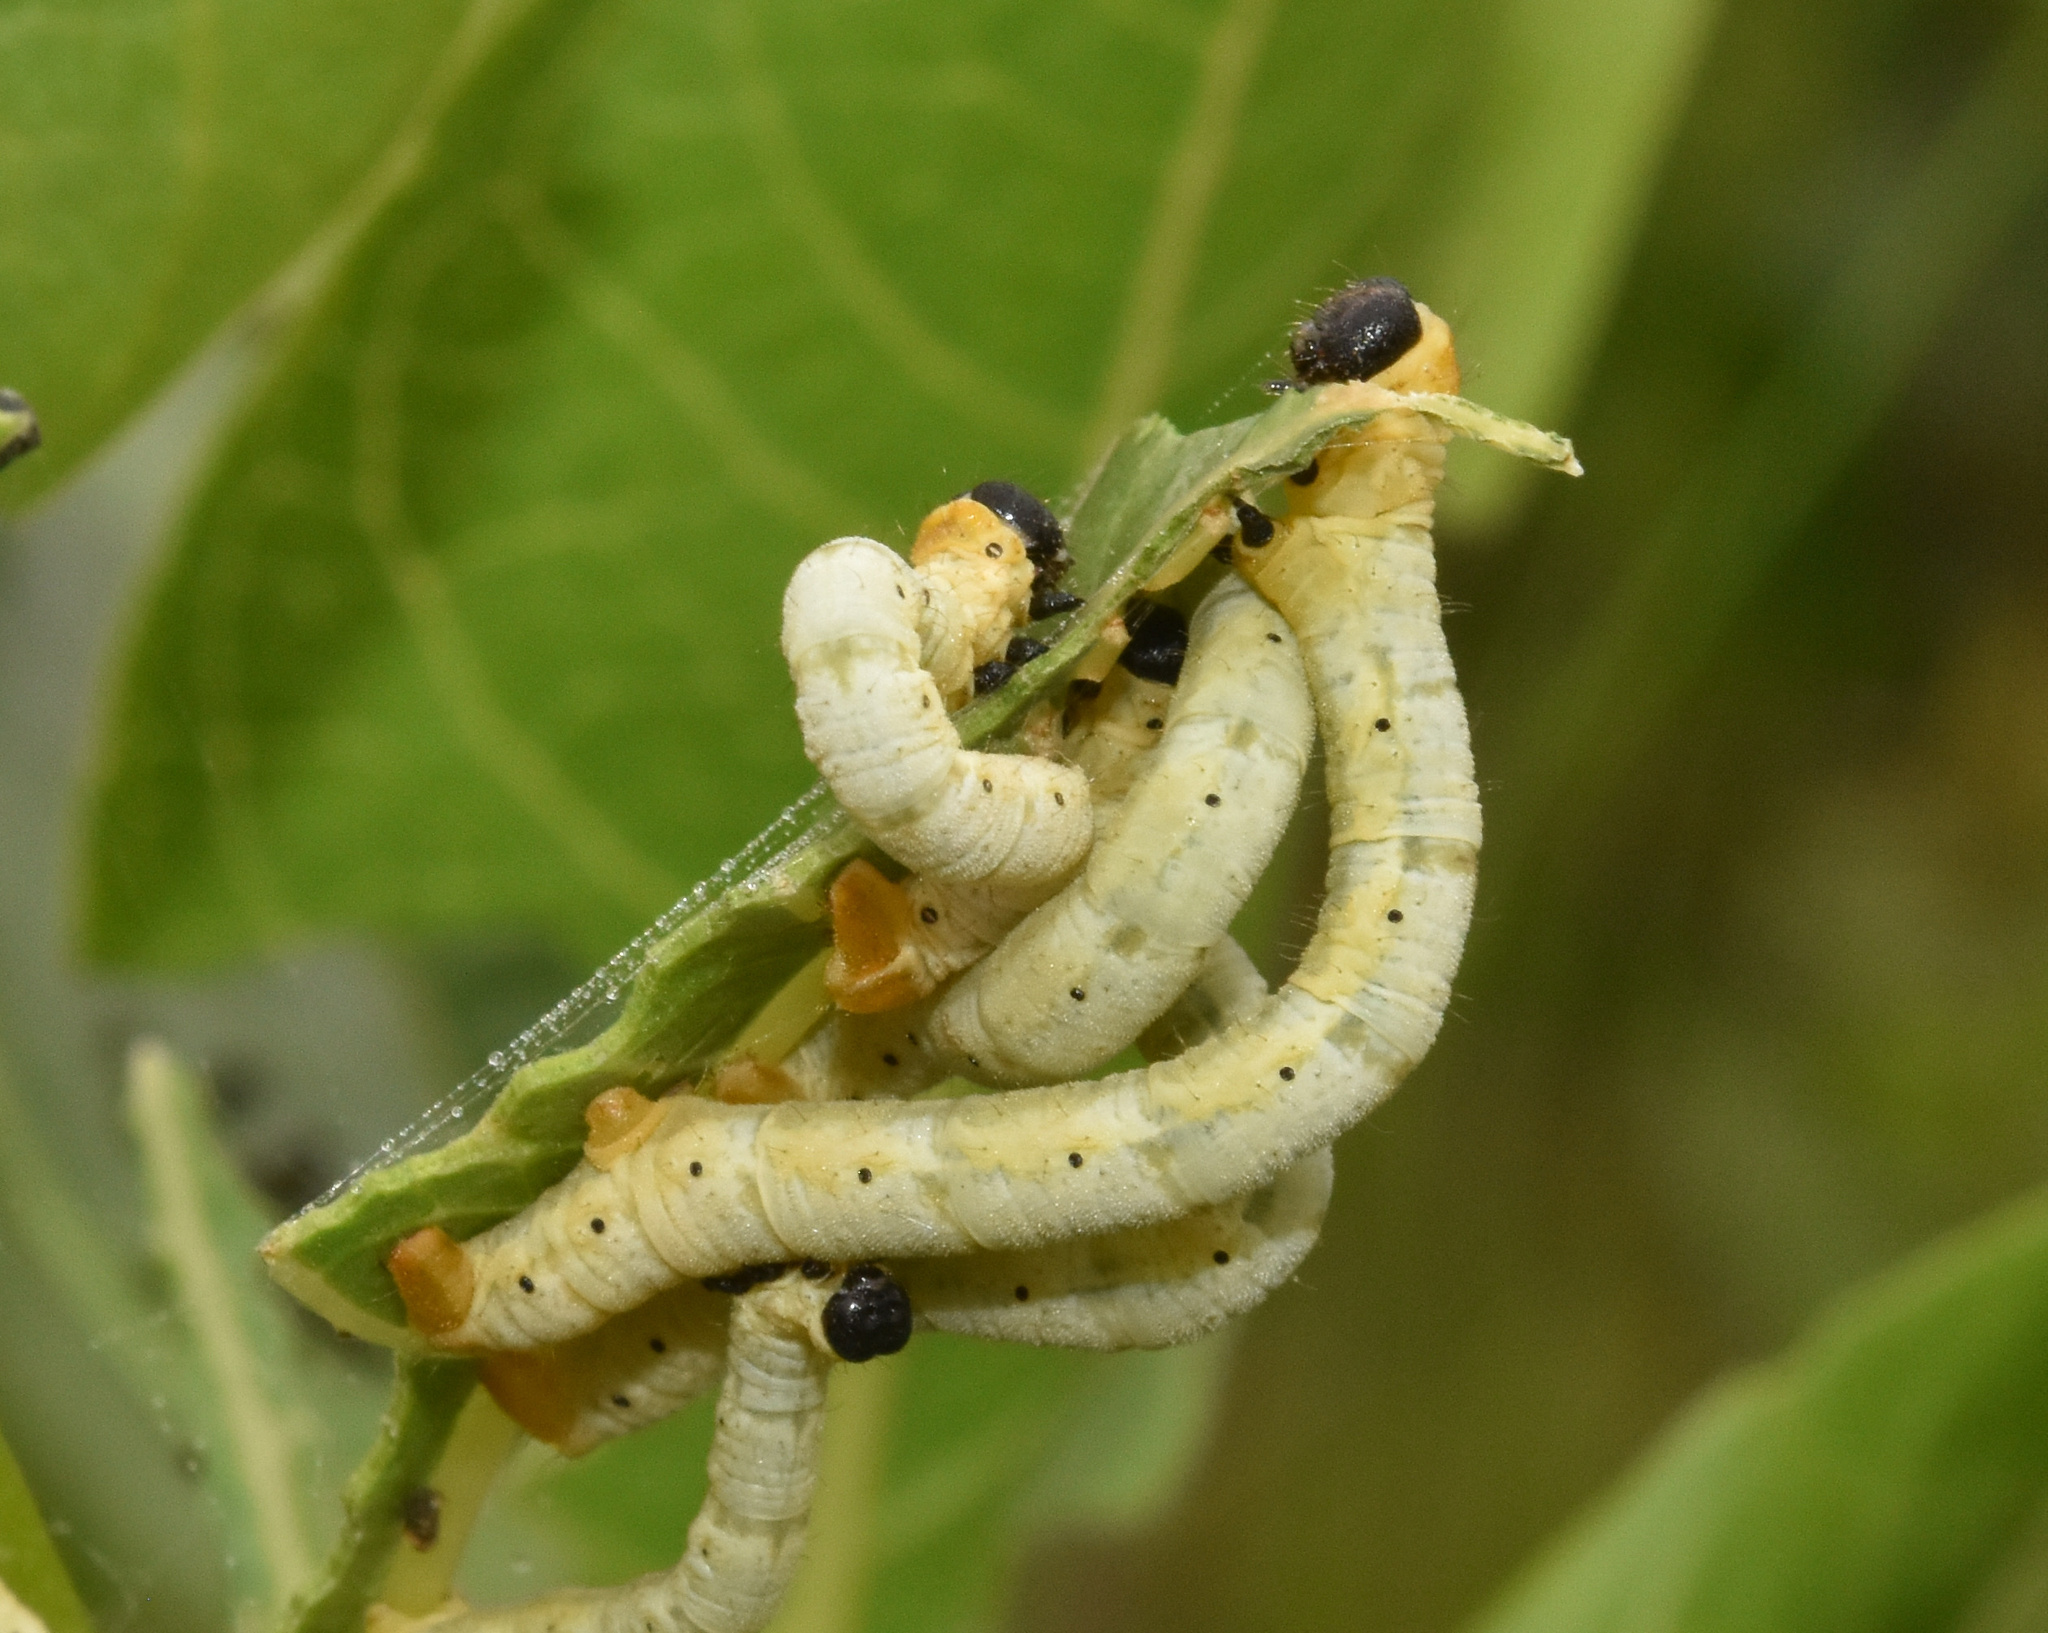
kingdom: Animalia
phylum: Arthropoda
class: Insecta
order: Lepidoptera
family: Geometridae
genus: Petovia
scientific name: Petovia marginata
